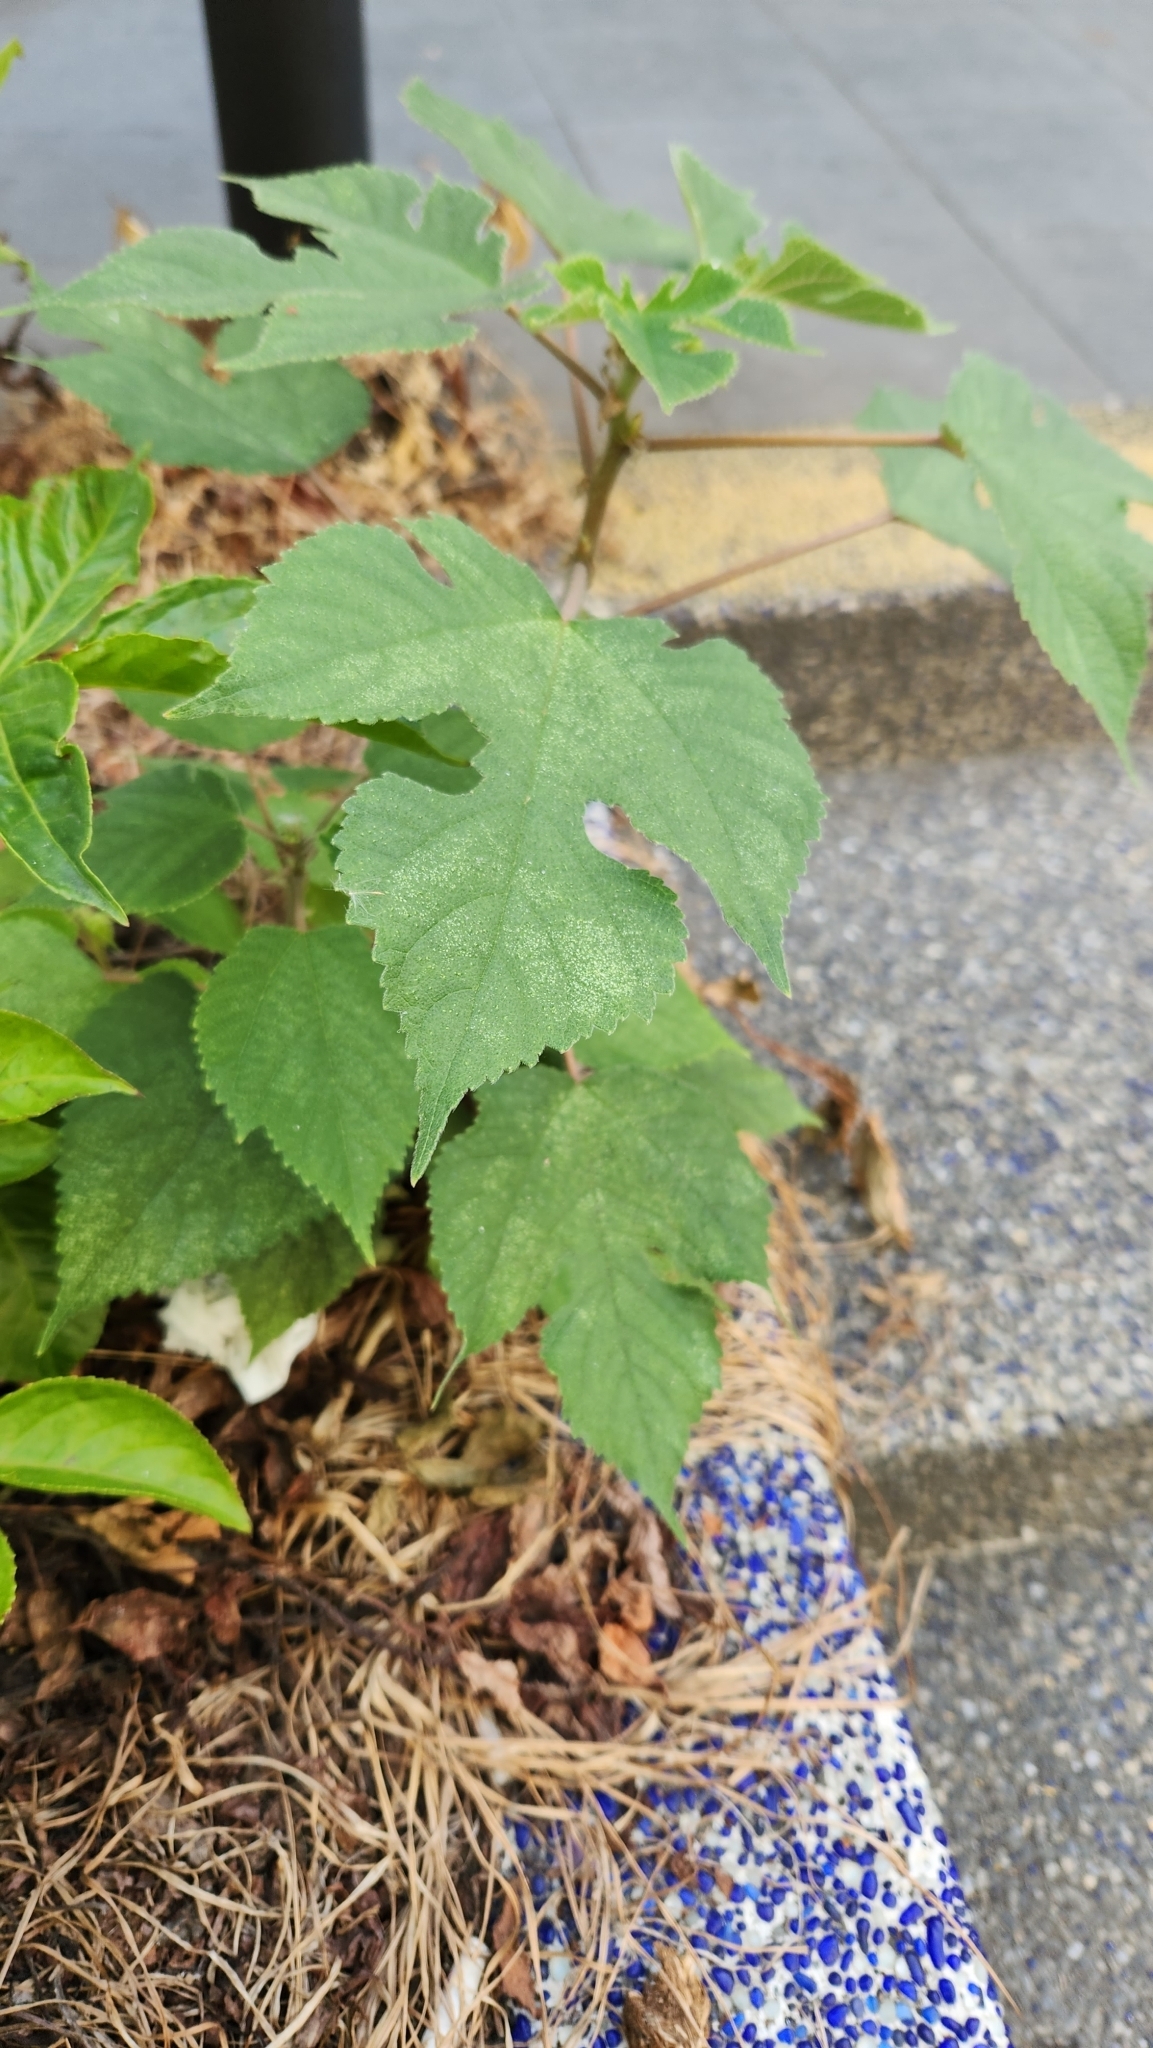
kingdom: Plantae
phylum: Tracheophyta
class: Magnoliopsida
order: Rosales
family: Moraceae
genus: Broussonetia
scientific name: Broussonetia papyrifera
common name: Paper mulberry
